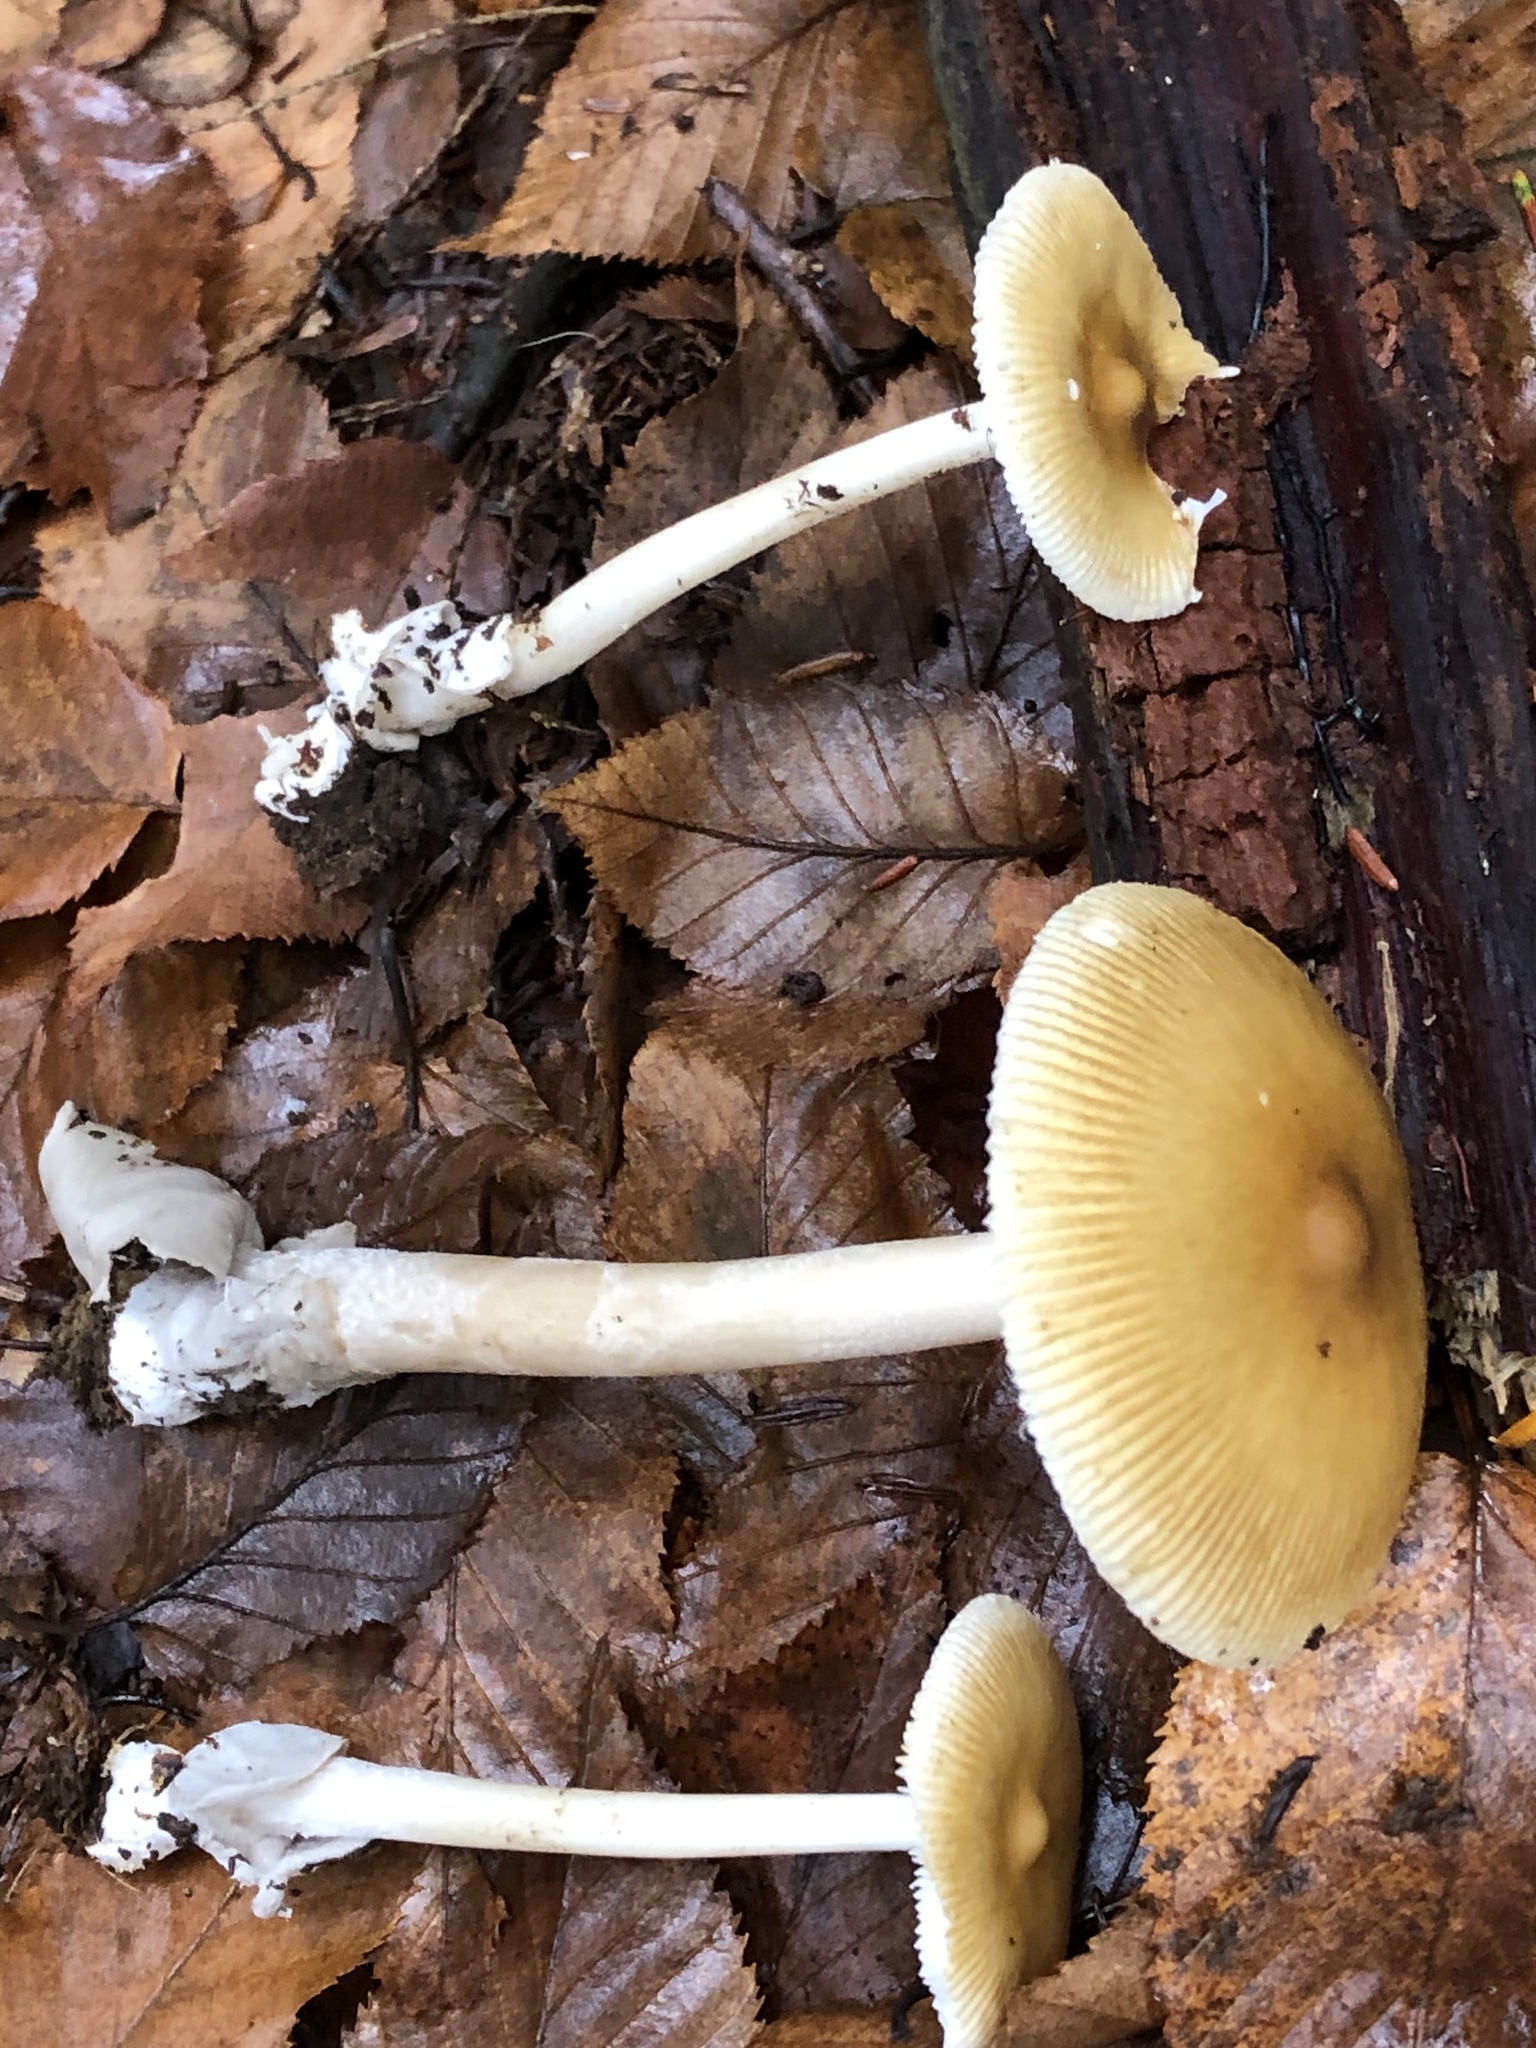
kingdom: Fungi
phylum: Basidiomycota
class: Agaricomycetes
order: Agaricales
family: Amanitaceae
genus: Amanita
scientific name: Amanita sinicoflava
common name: Mandarin yellow ringless amanita
